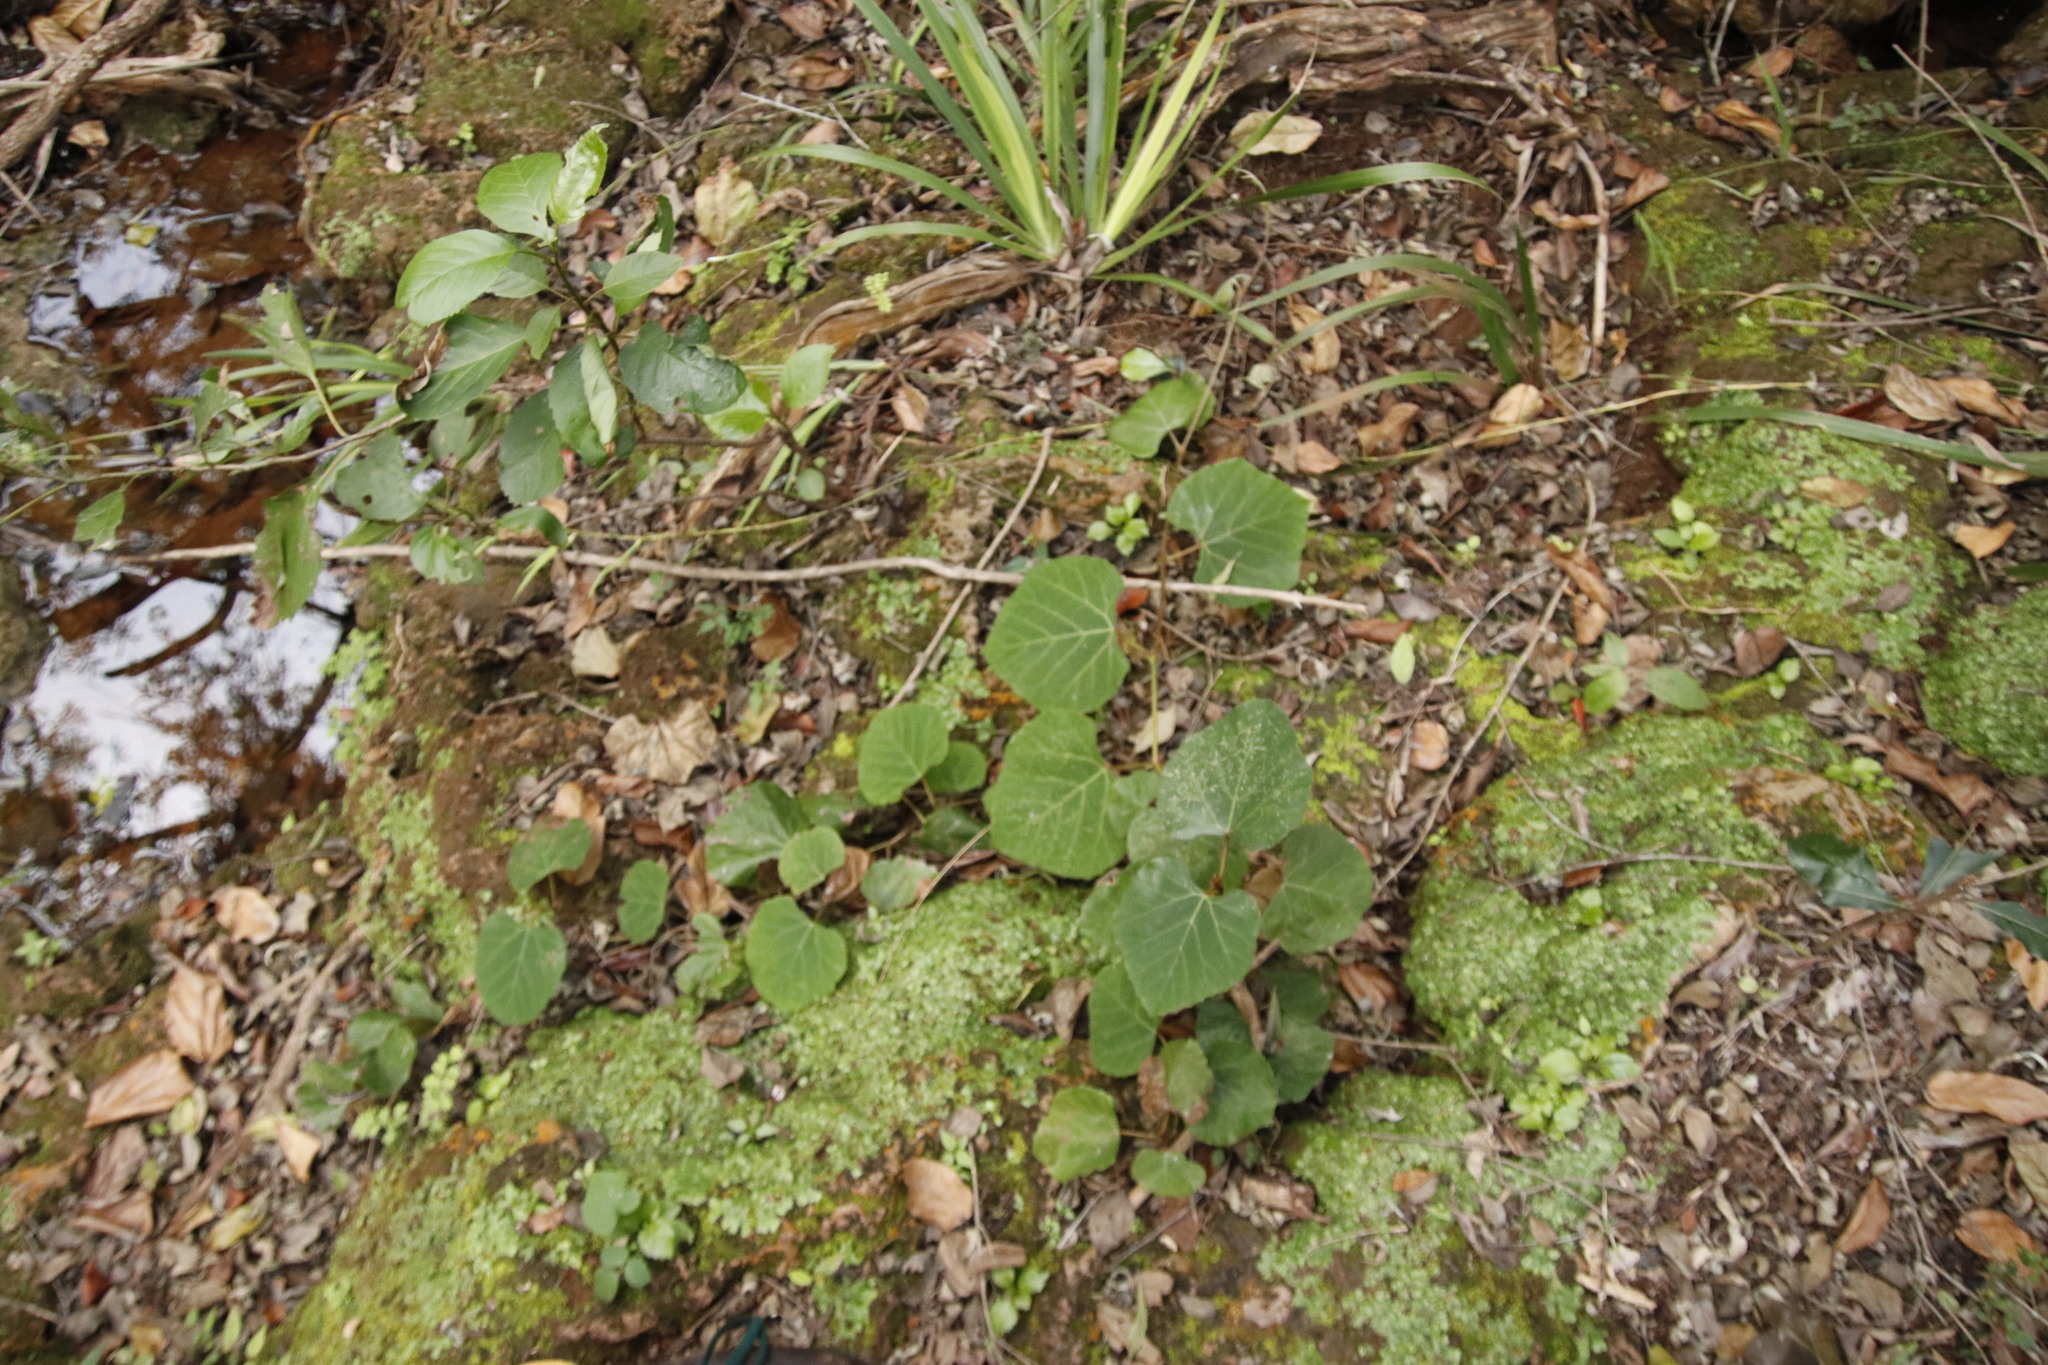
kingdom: Plantae
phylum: Tracheophyta
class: Magnoliopsida
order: Vitales
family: Vitaceae
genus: Rhoicissus
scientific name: Rhoicissus tomentosa
